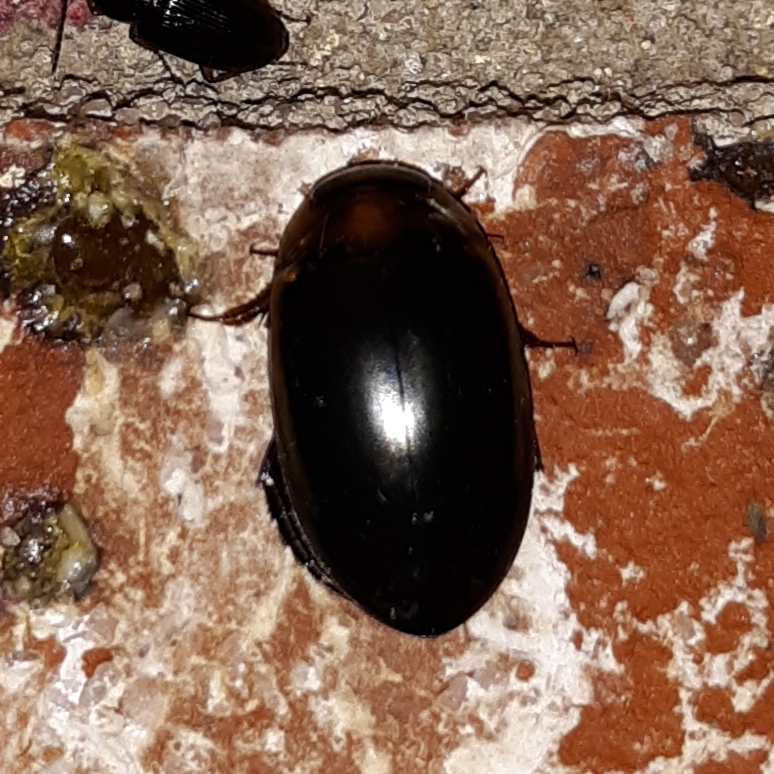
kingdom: Animalia
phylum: Arthropoda
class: Insecta
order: Coleoptera
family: Dytiscidae
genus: Hydaticus
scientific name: Hydaticus bimarginatus
